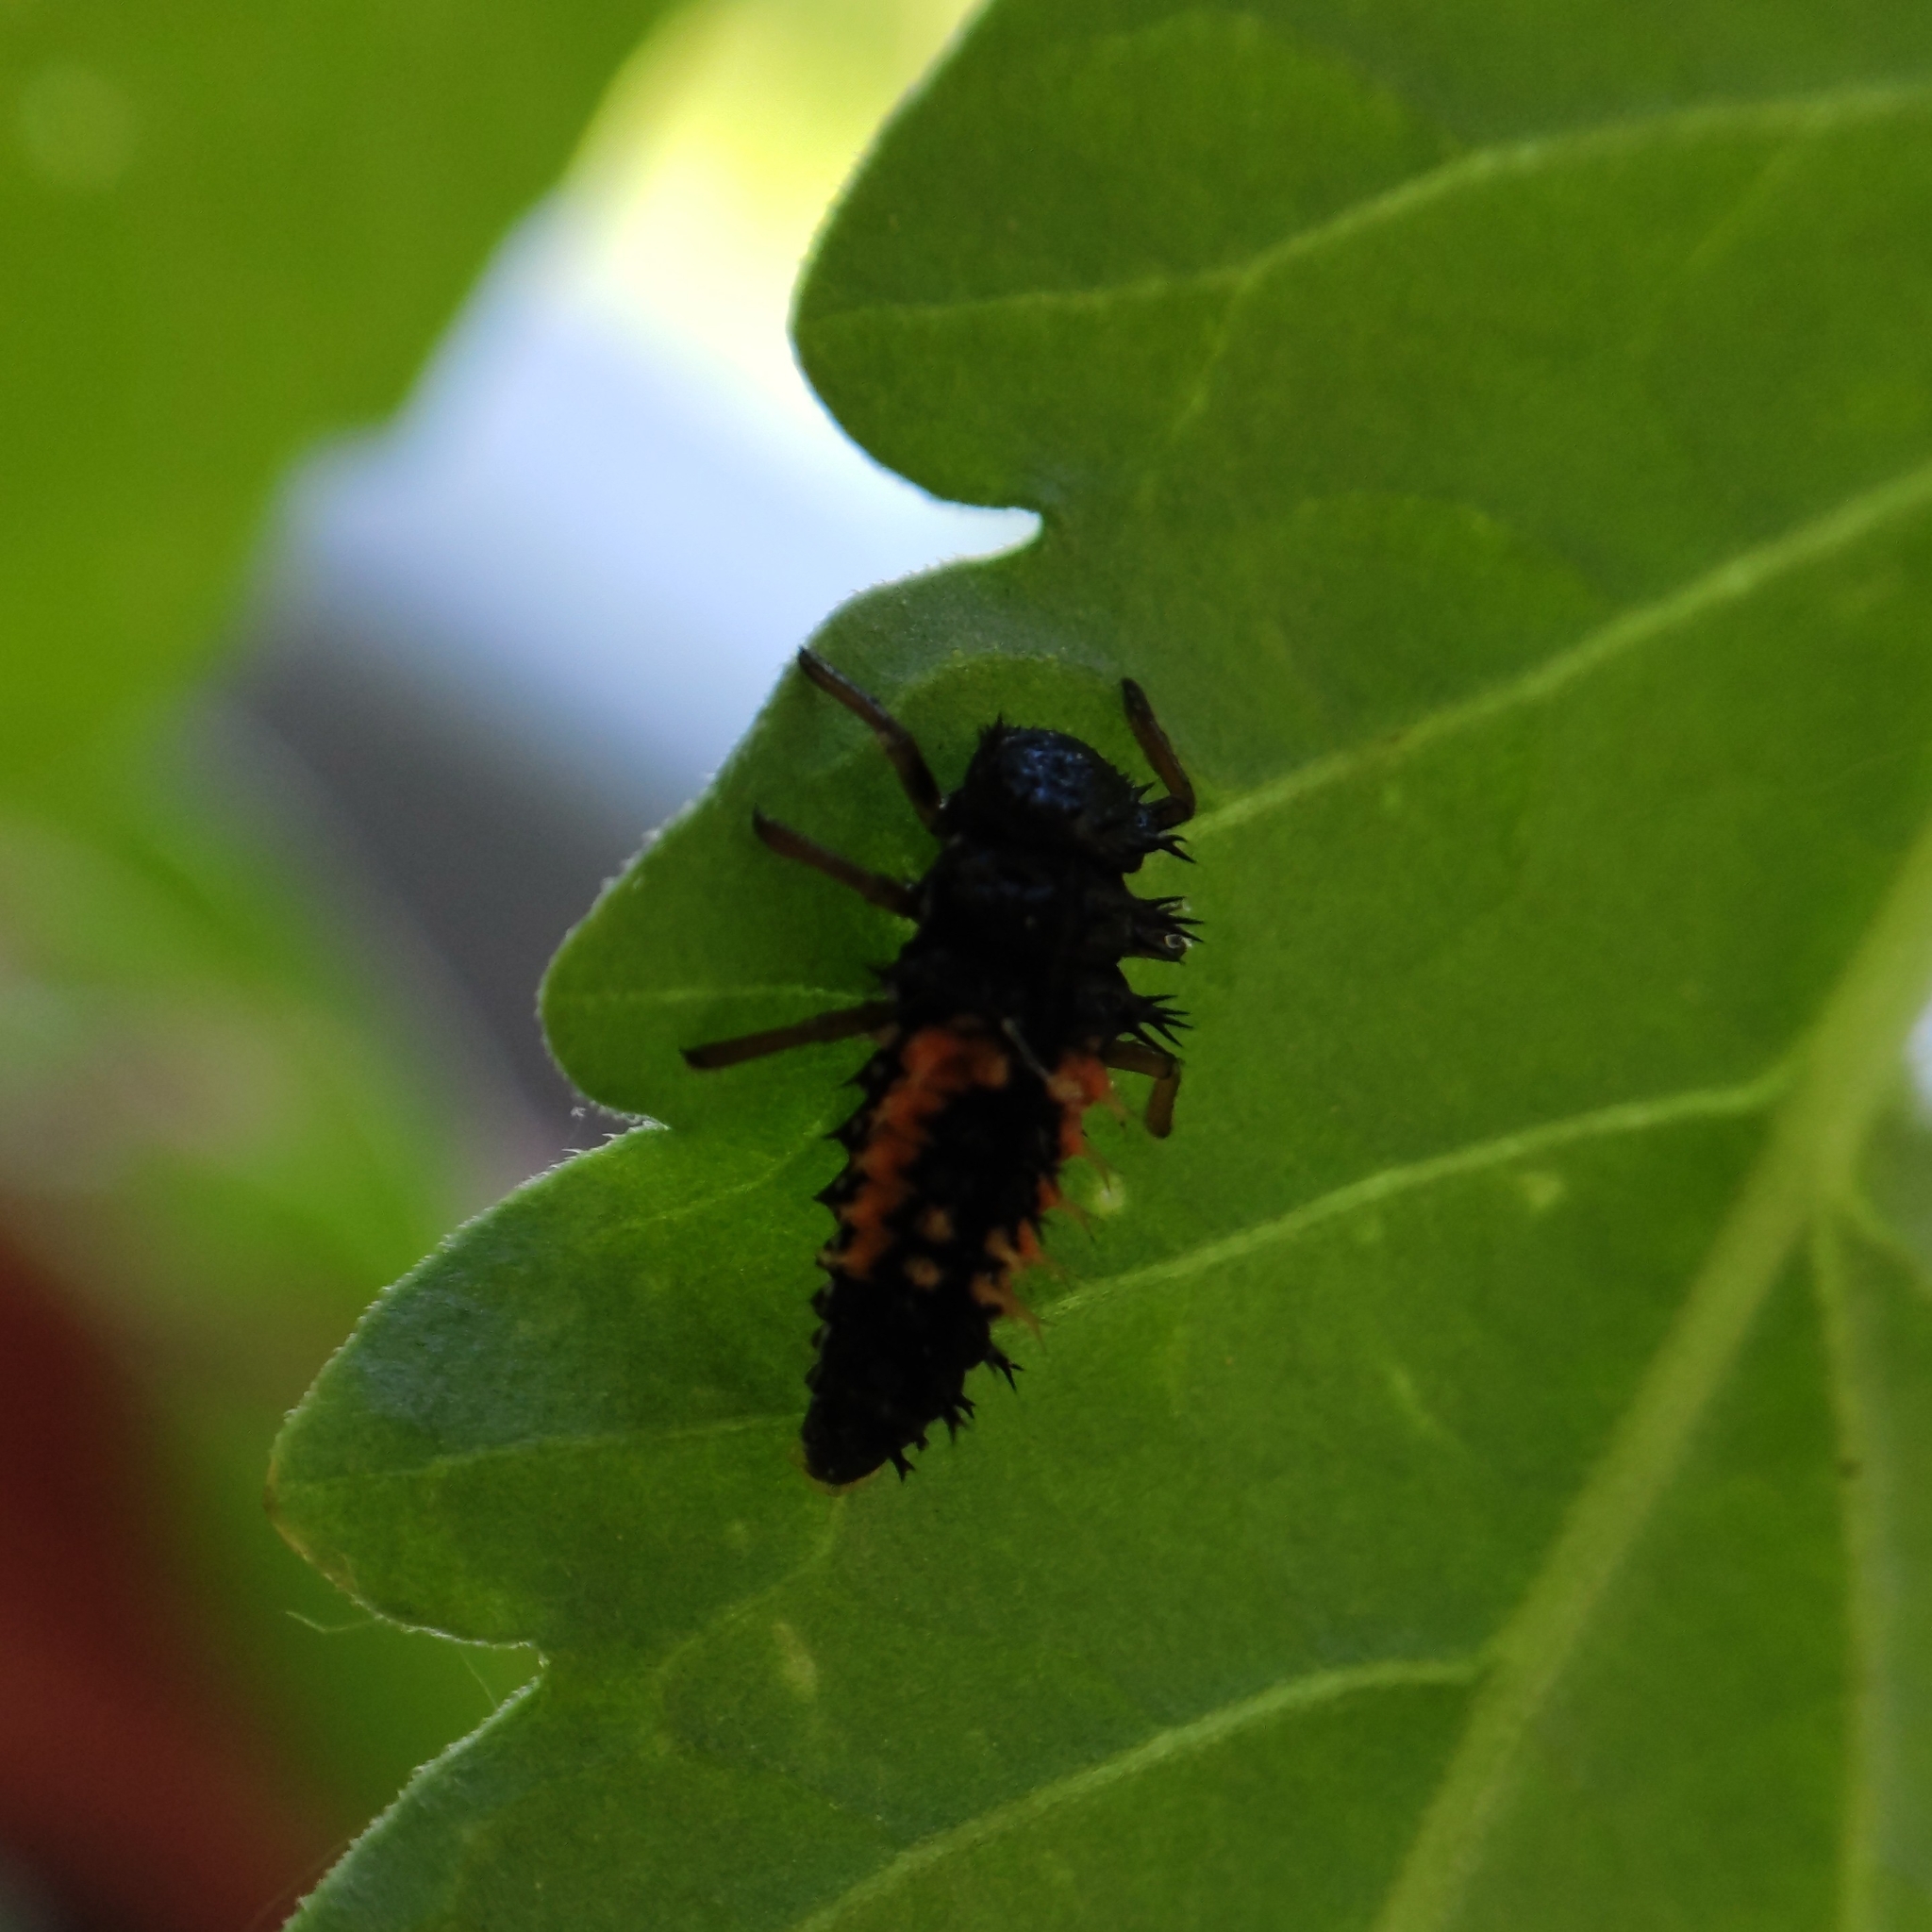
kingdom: Animalia
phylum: Arthropoda
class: Insecta
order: Coleoptera
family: Coccinellidae
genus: Harmonia
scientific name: Harmonia axyridis
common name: Harlequin ladybird
